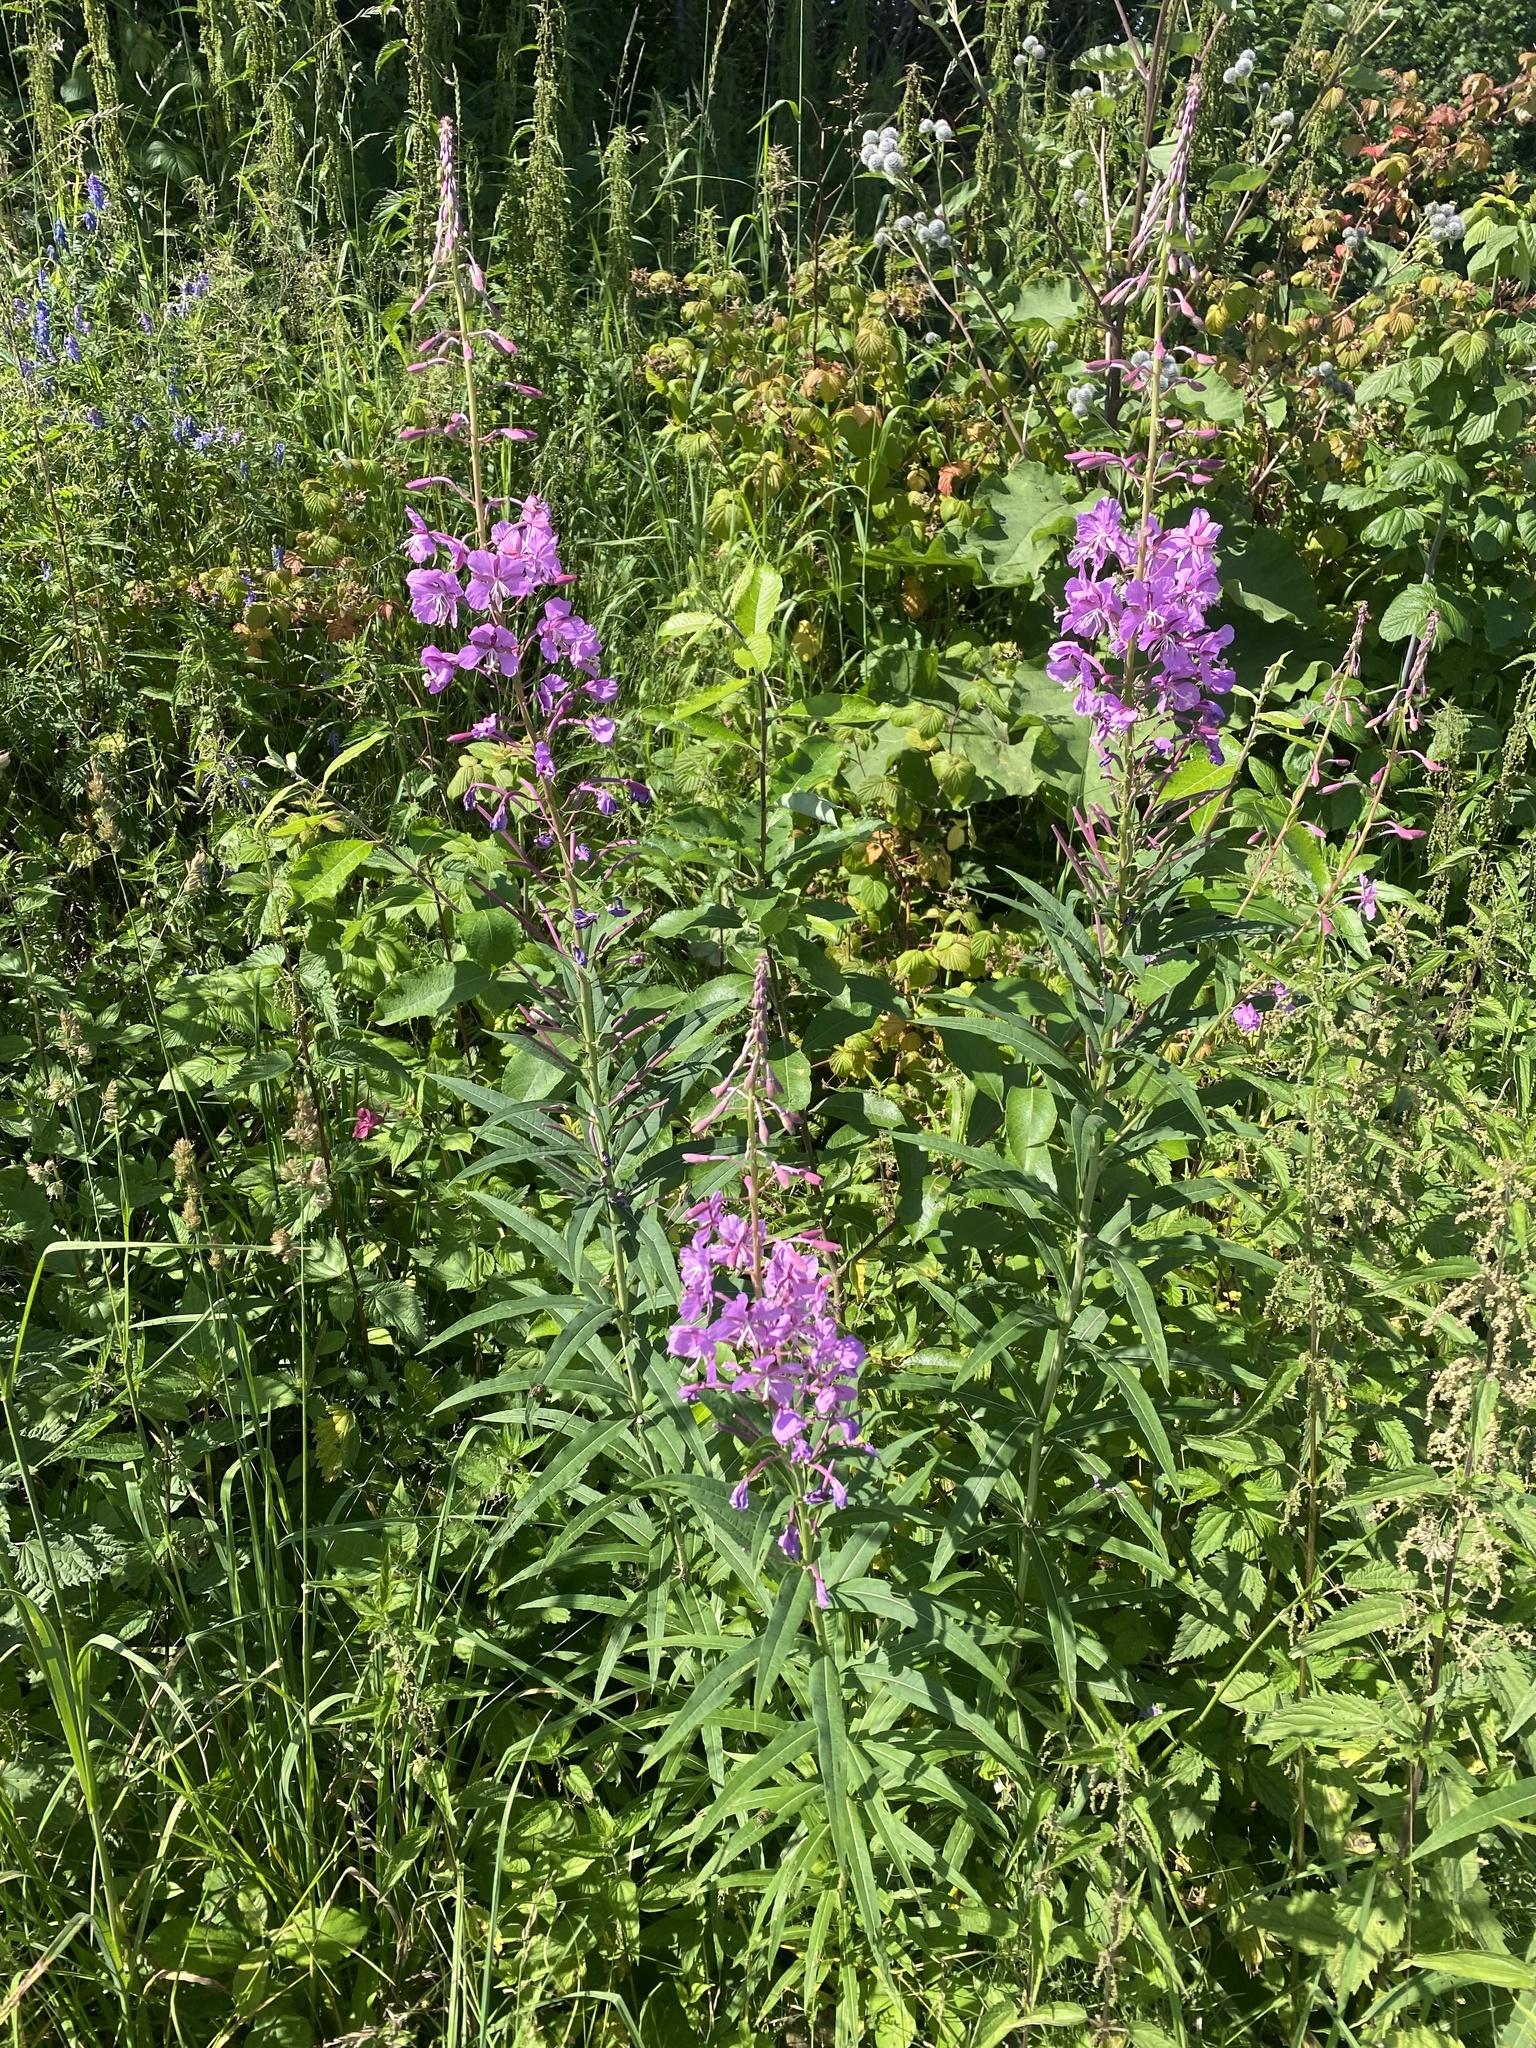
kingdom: Plantae
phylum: Tracheophyta
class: Magnoliopsida
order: Myrtales
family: Onagraceae
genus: Chamaenerion
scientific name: Chamaenerion angustifolium
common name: Fireweed
